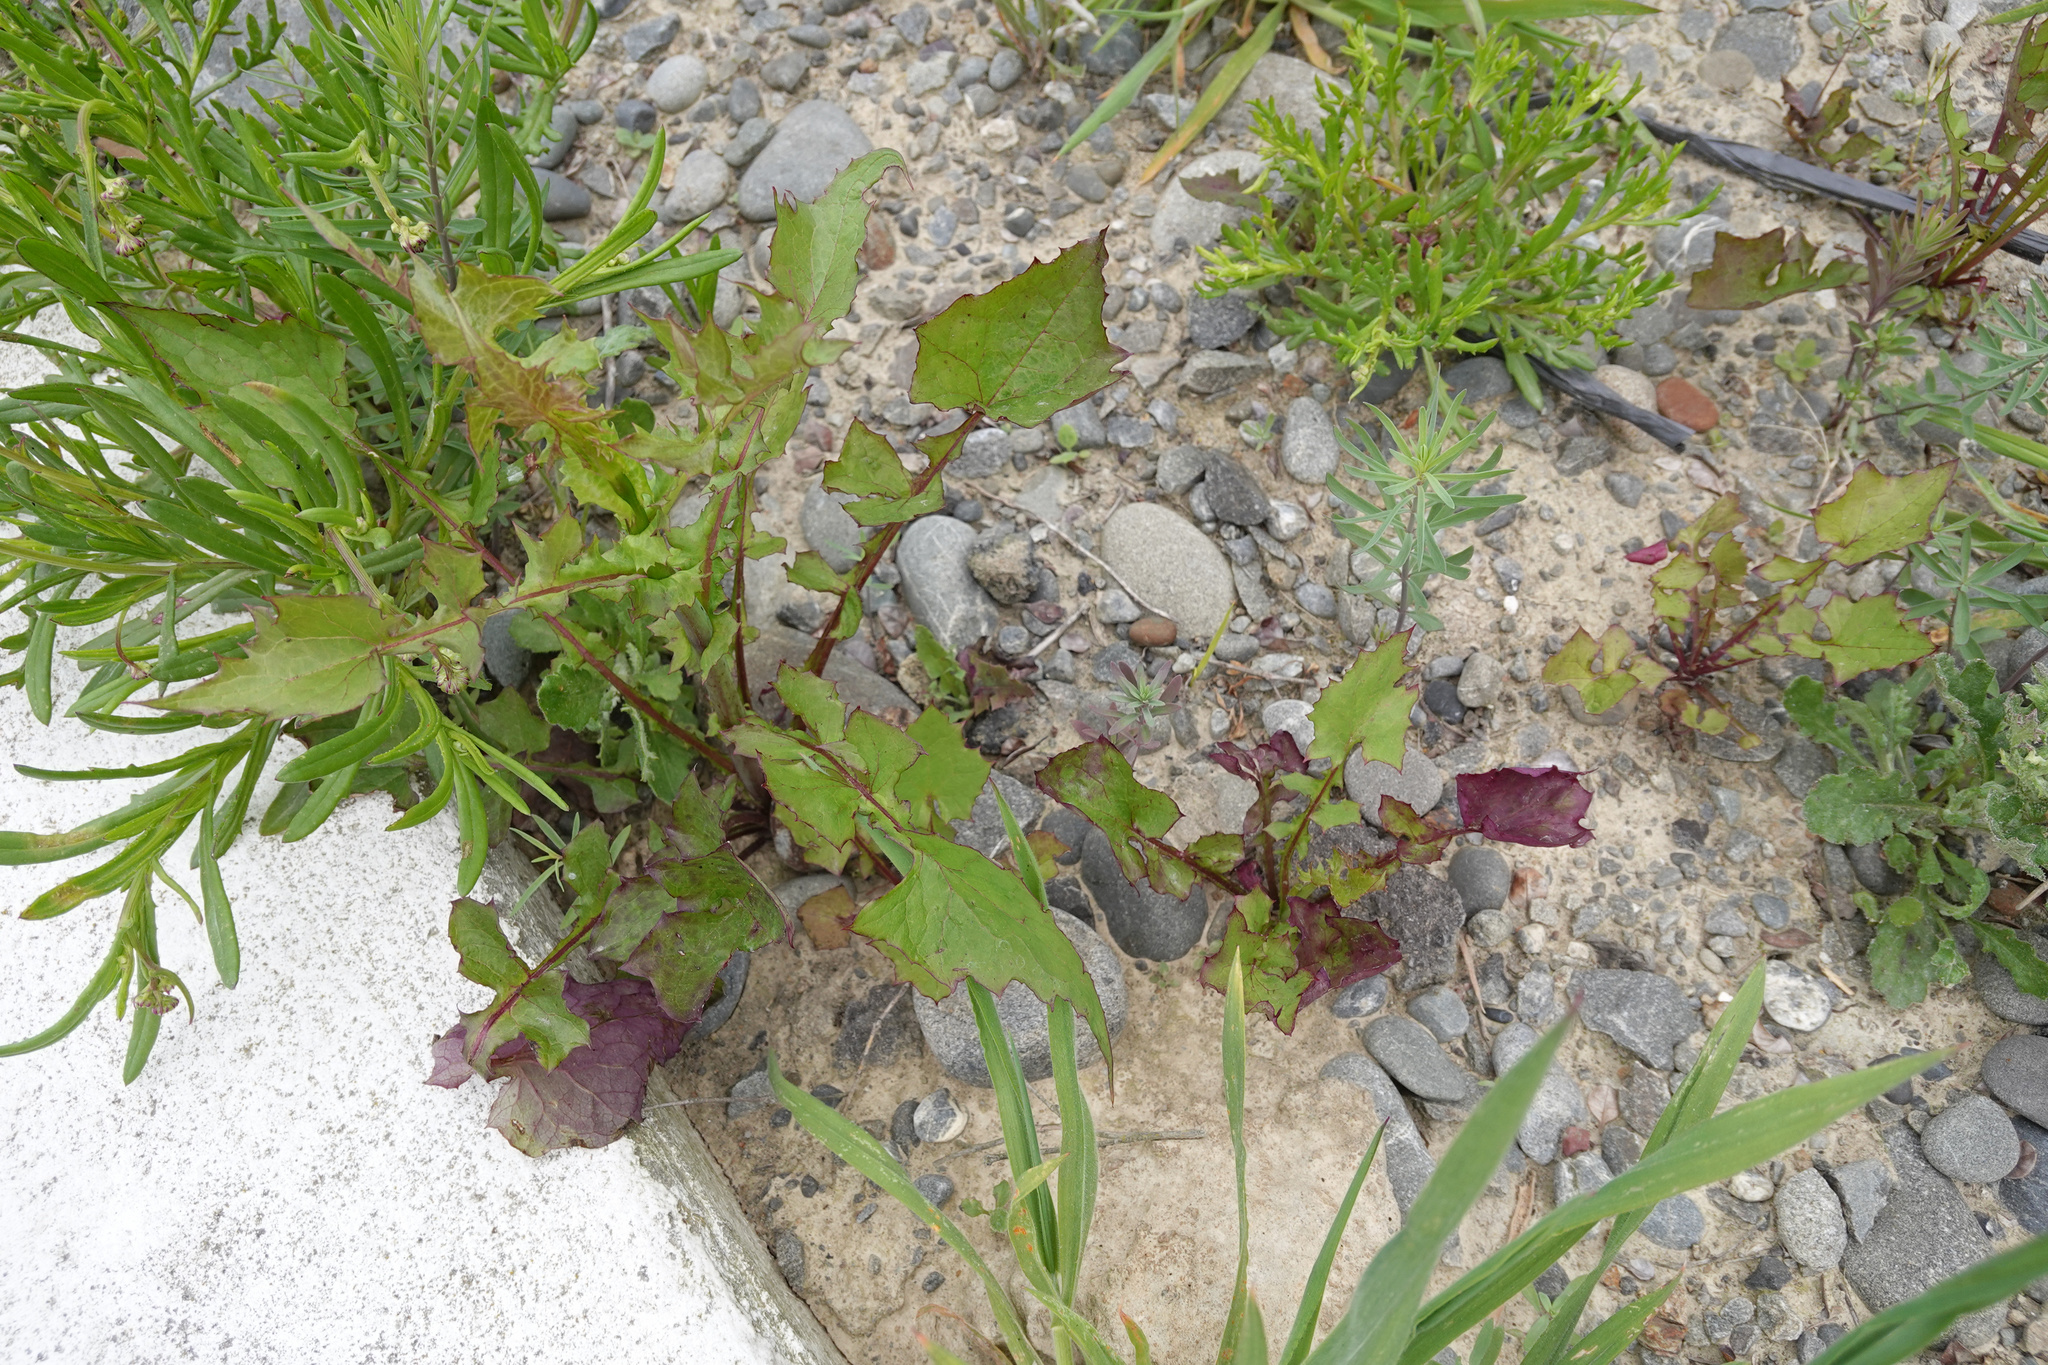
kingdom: Plantae
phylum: Tracheophyta
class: Magnoliopsida
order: Asterales
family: Asteraceae
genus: Mycelis
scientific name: Mycelis muralis
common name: Wall lettuce
